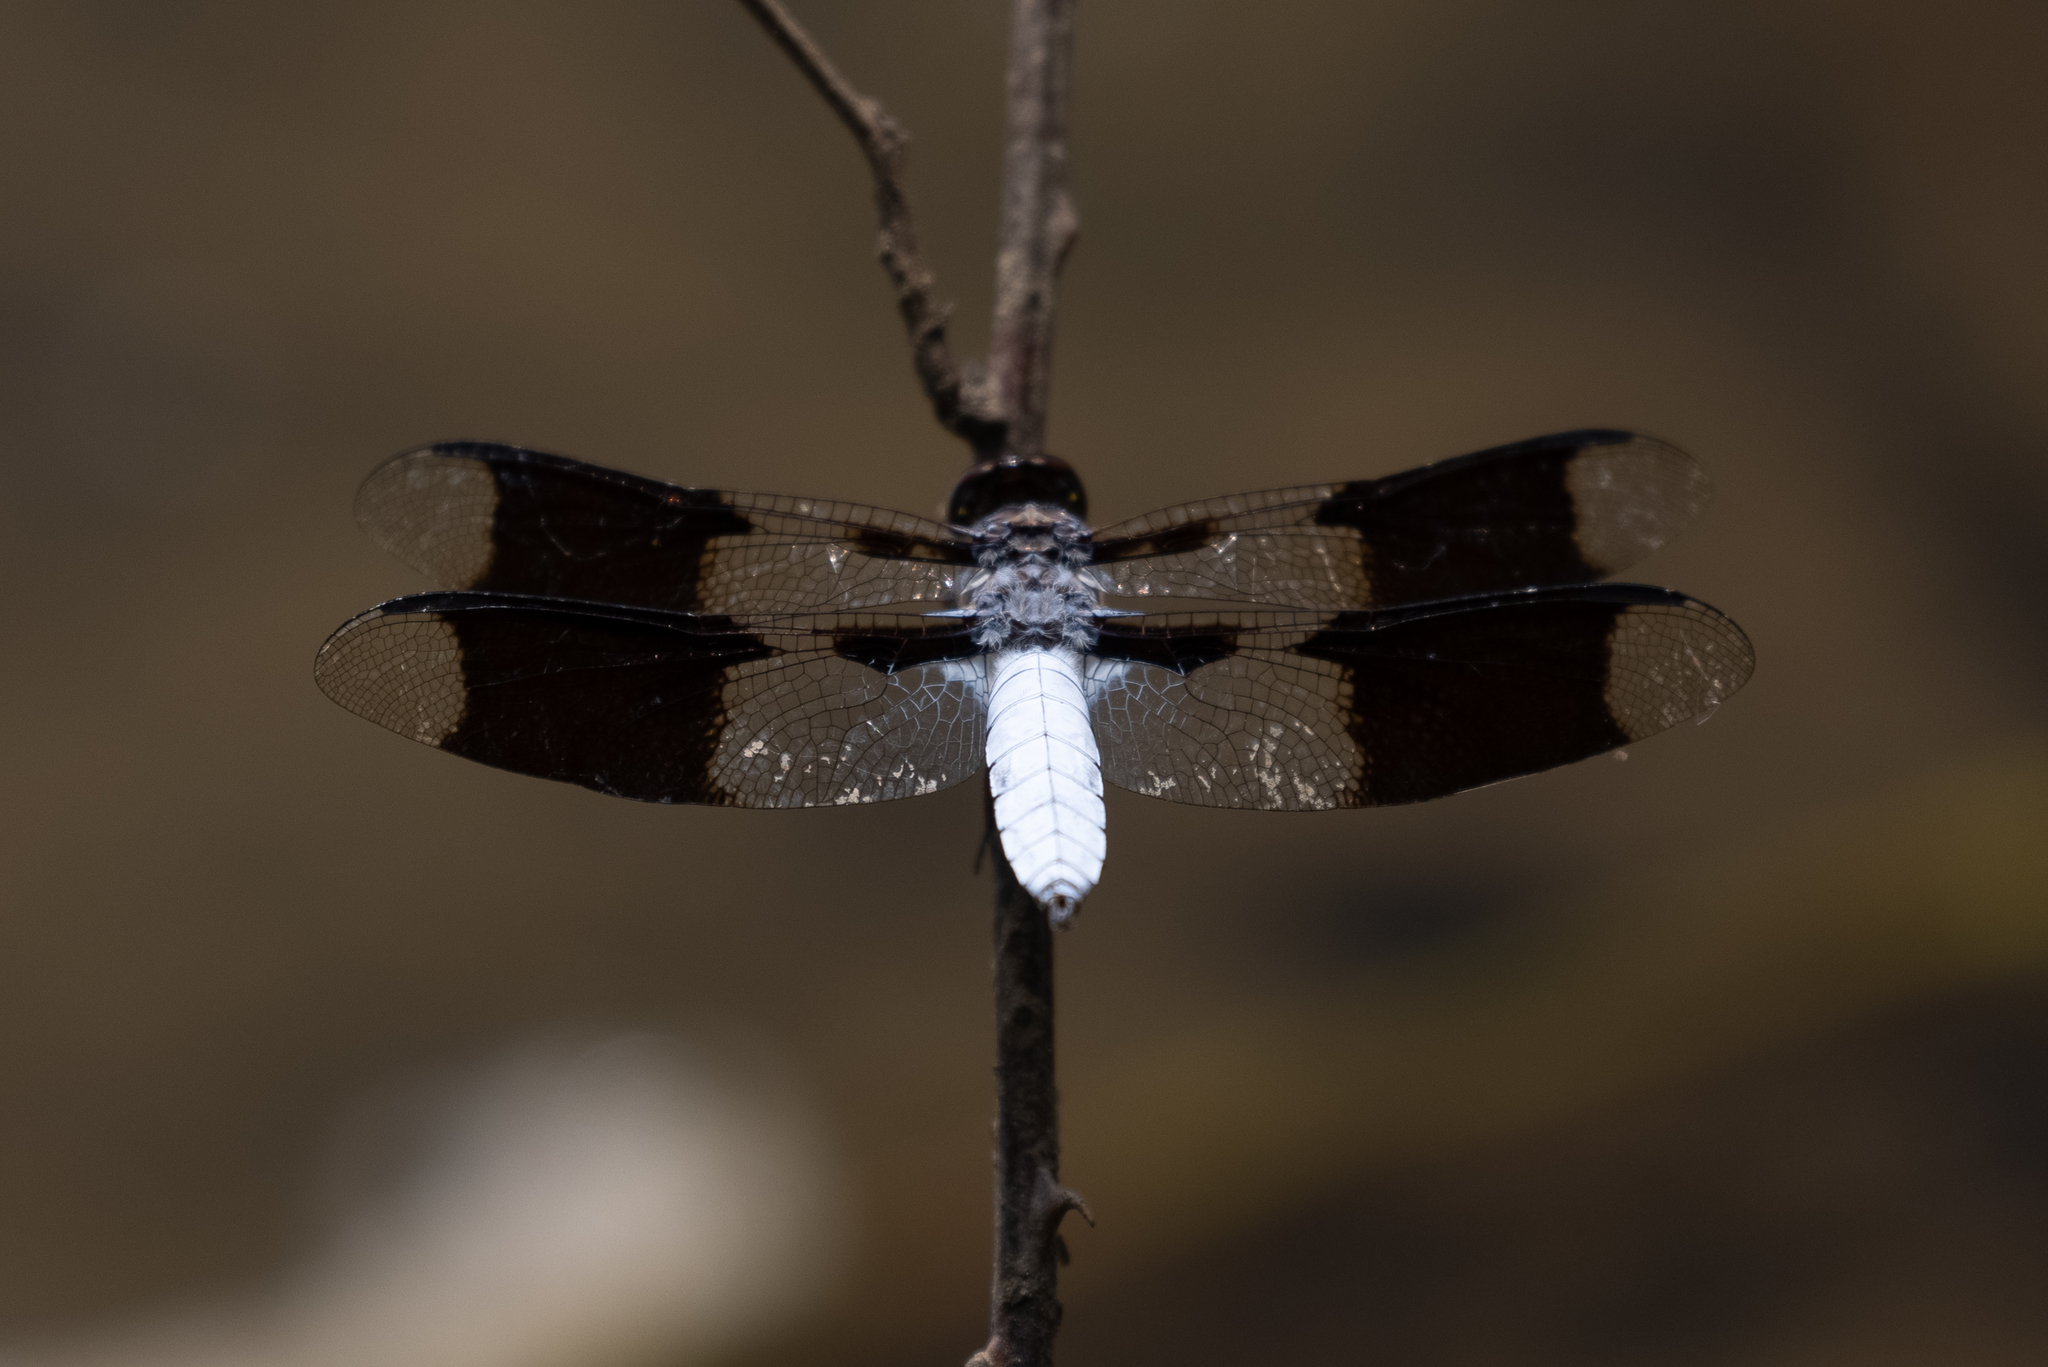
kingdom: Animalia
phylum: Arthropoda
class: Insecta
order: Odonata
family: Libellulidae
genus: Plathemis
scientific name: Plathemis lydia
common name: Common whitetail
